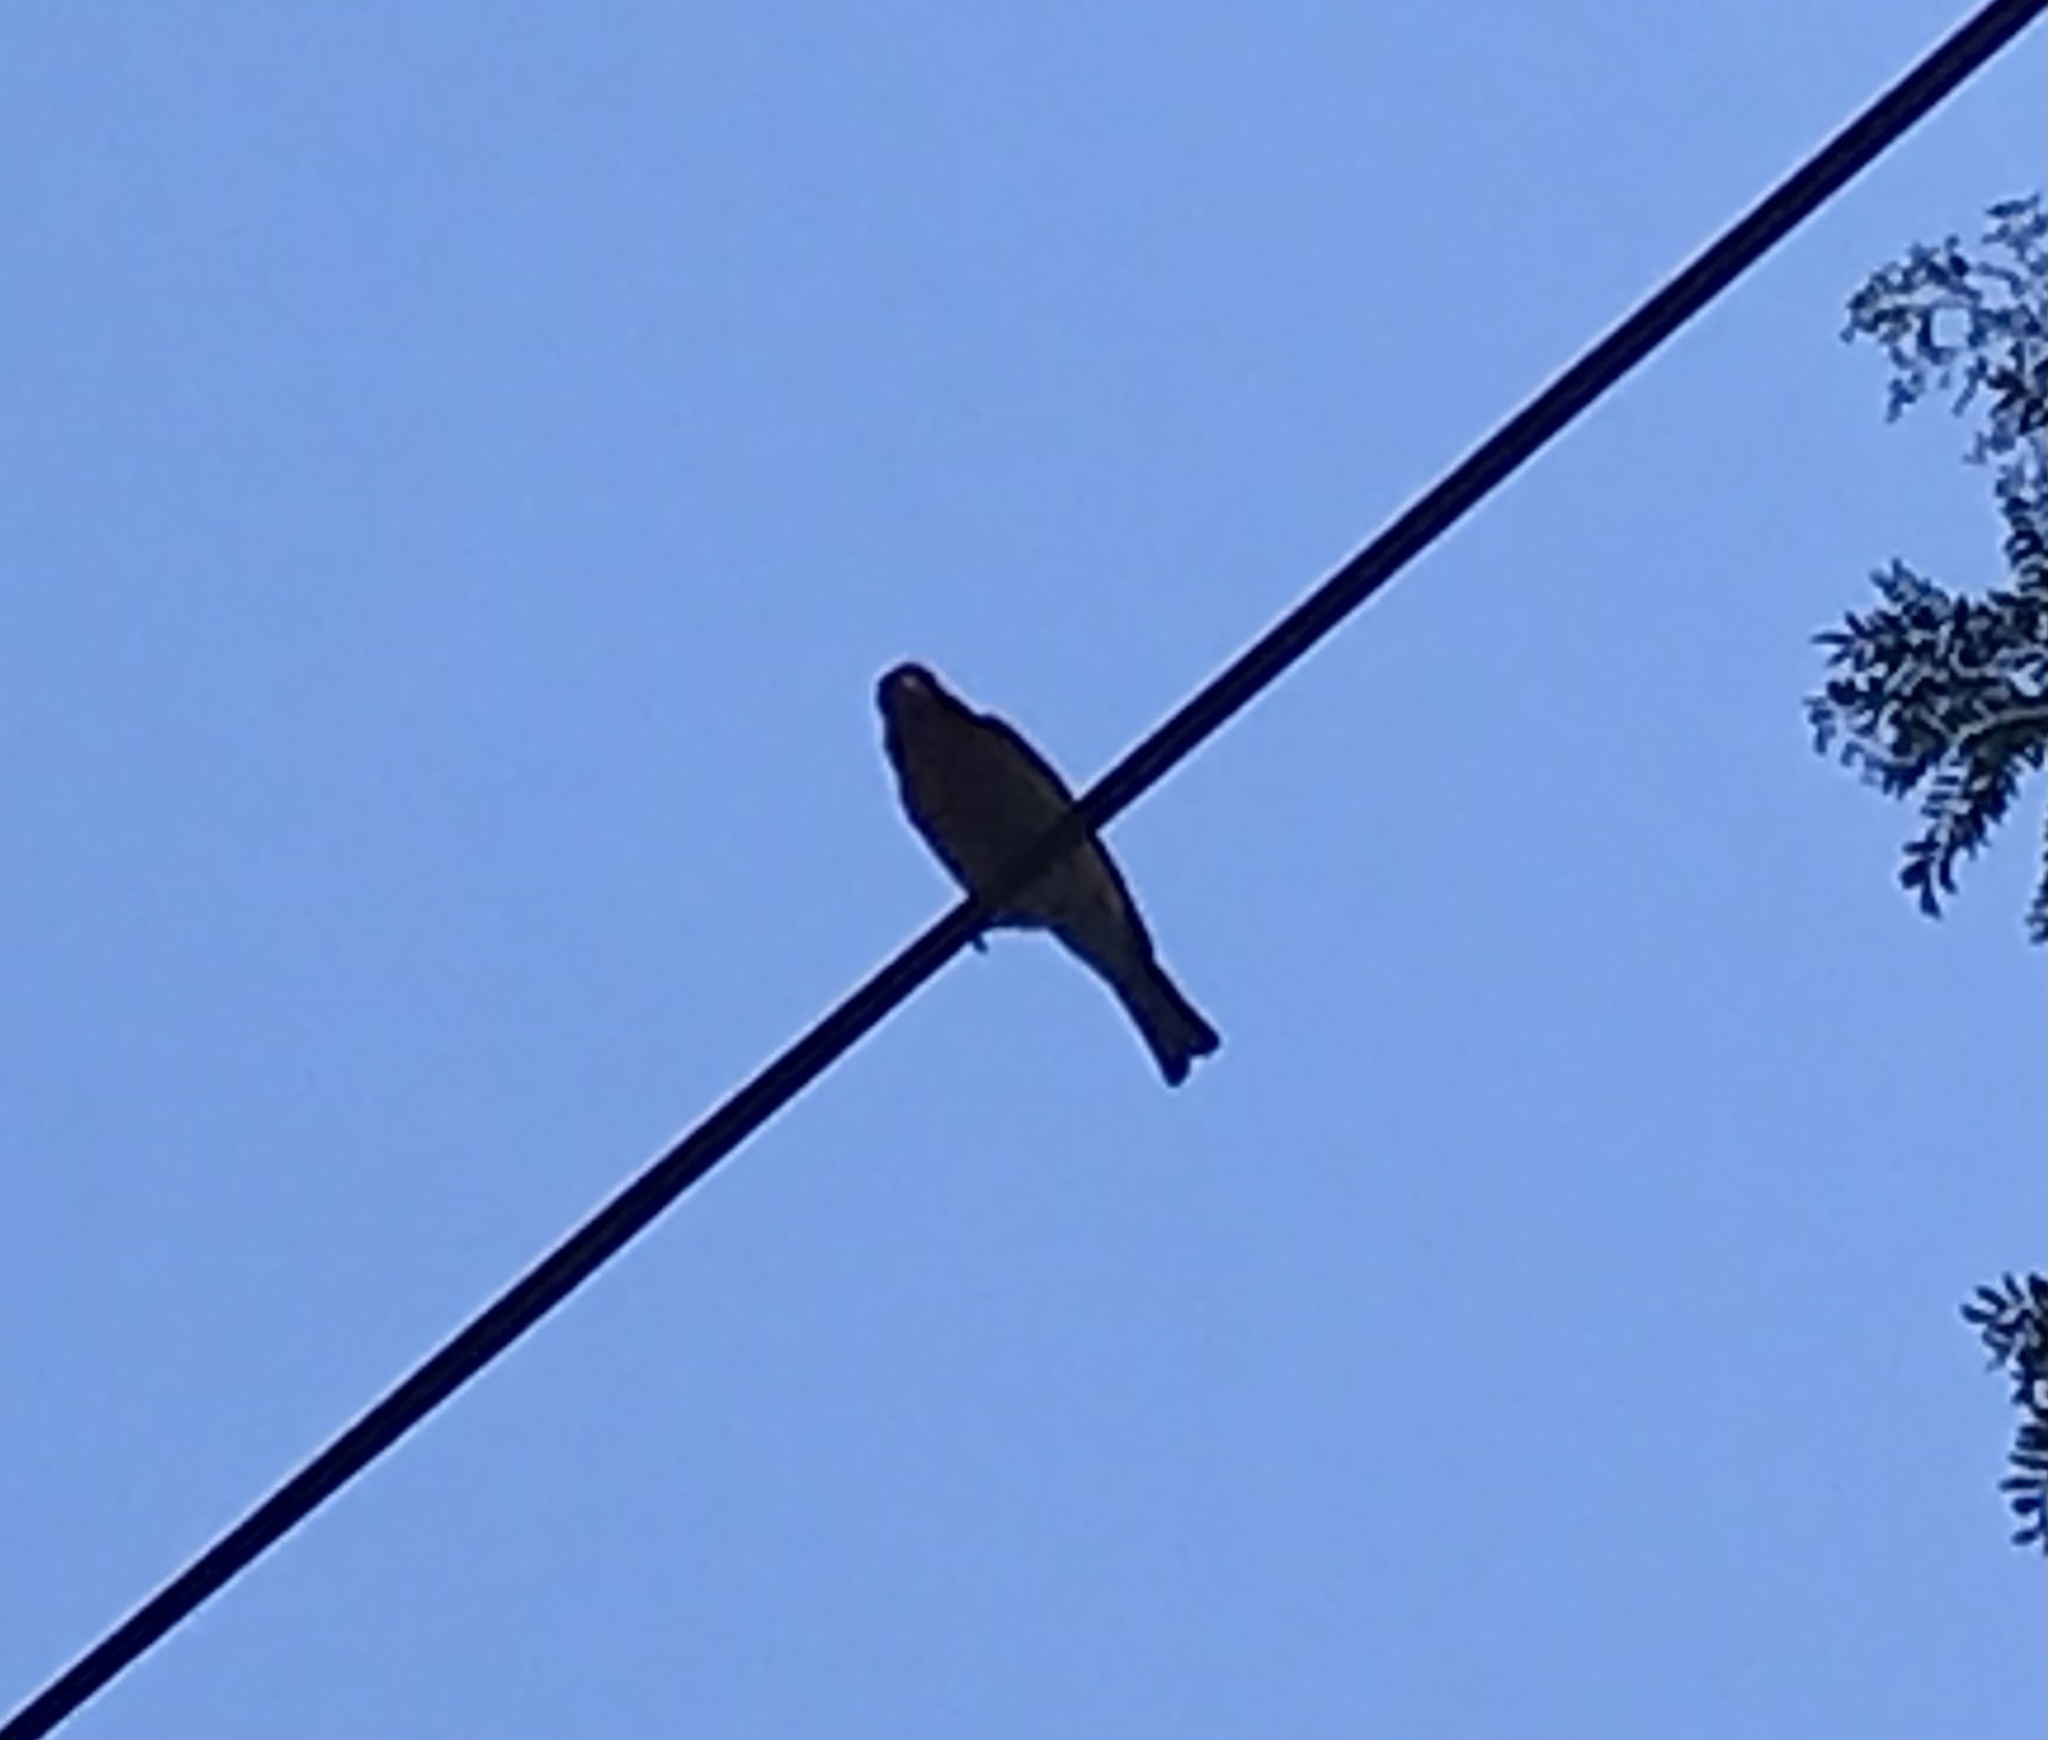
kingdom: Animalia
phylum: Chordata
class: Aves
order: Passeriformes
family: Fringillidae
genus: Haemorhous
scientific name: Haemorhous mexicanus
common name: House finch
